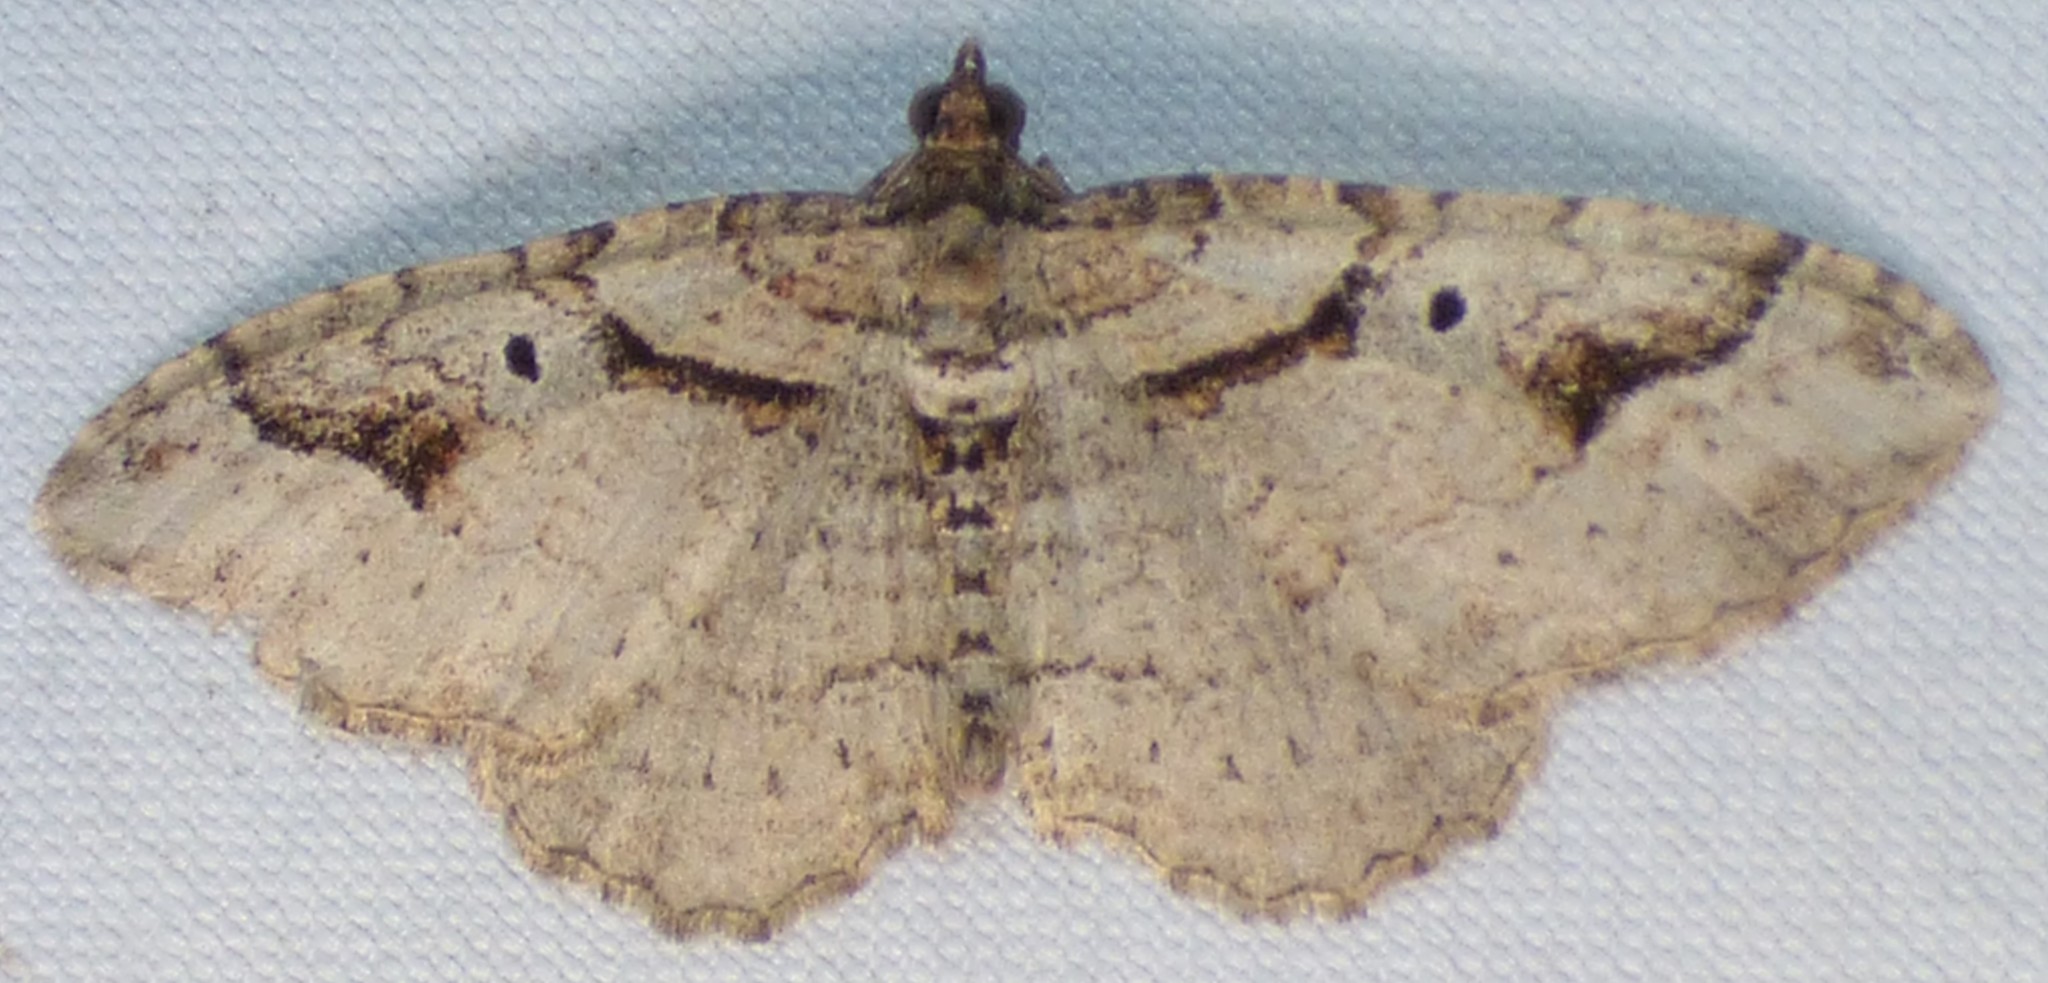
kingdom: Animalia
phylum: Arthropoda
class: Insecta
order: Lepidoptera
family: Geometridae
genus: Costaconvexa
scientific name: Costaconvexa centrostrigaria
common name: Bent-line carpet
